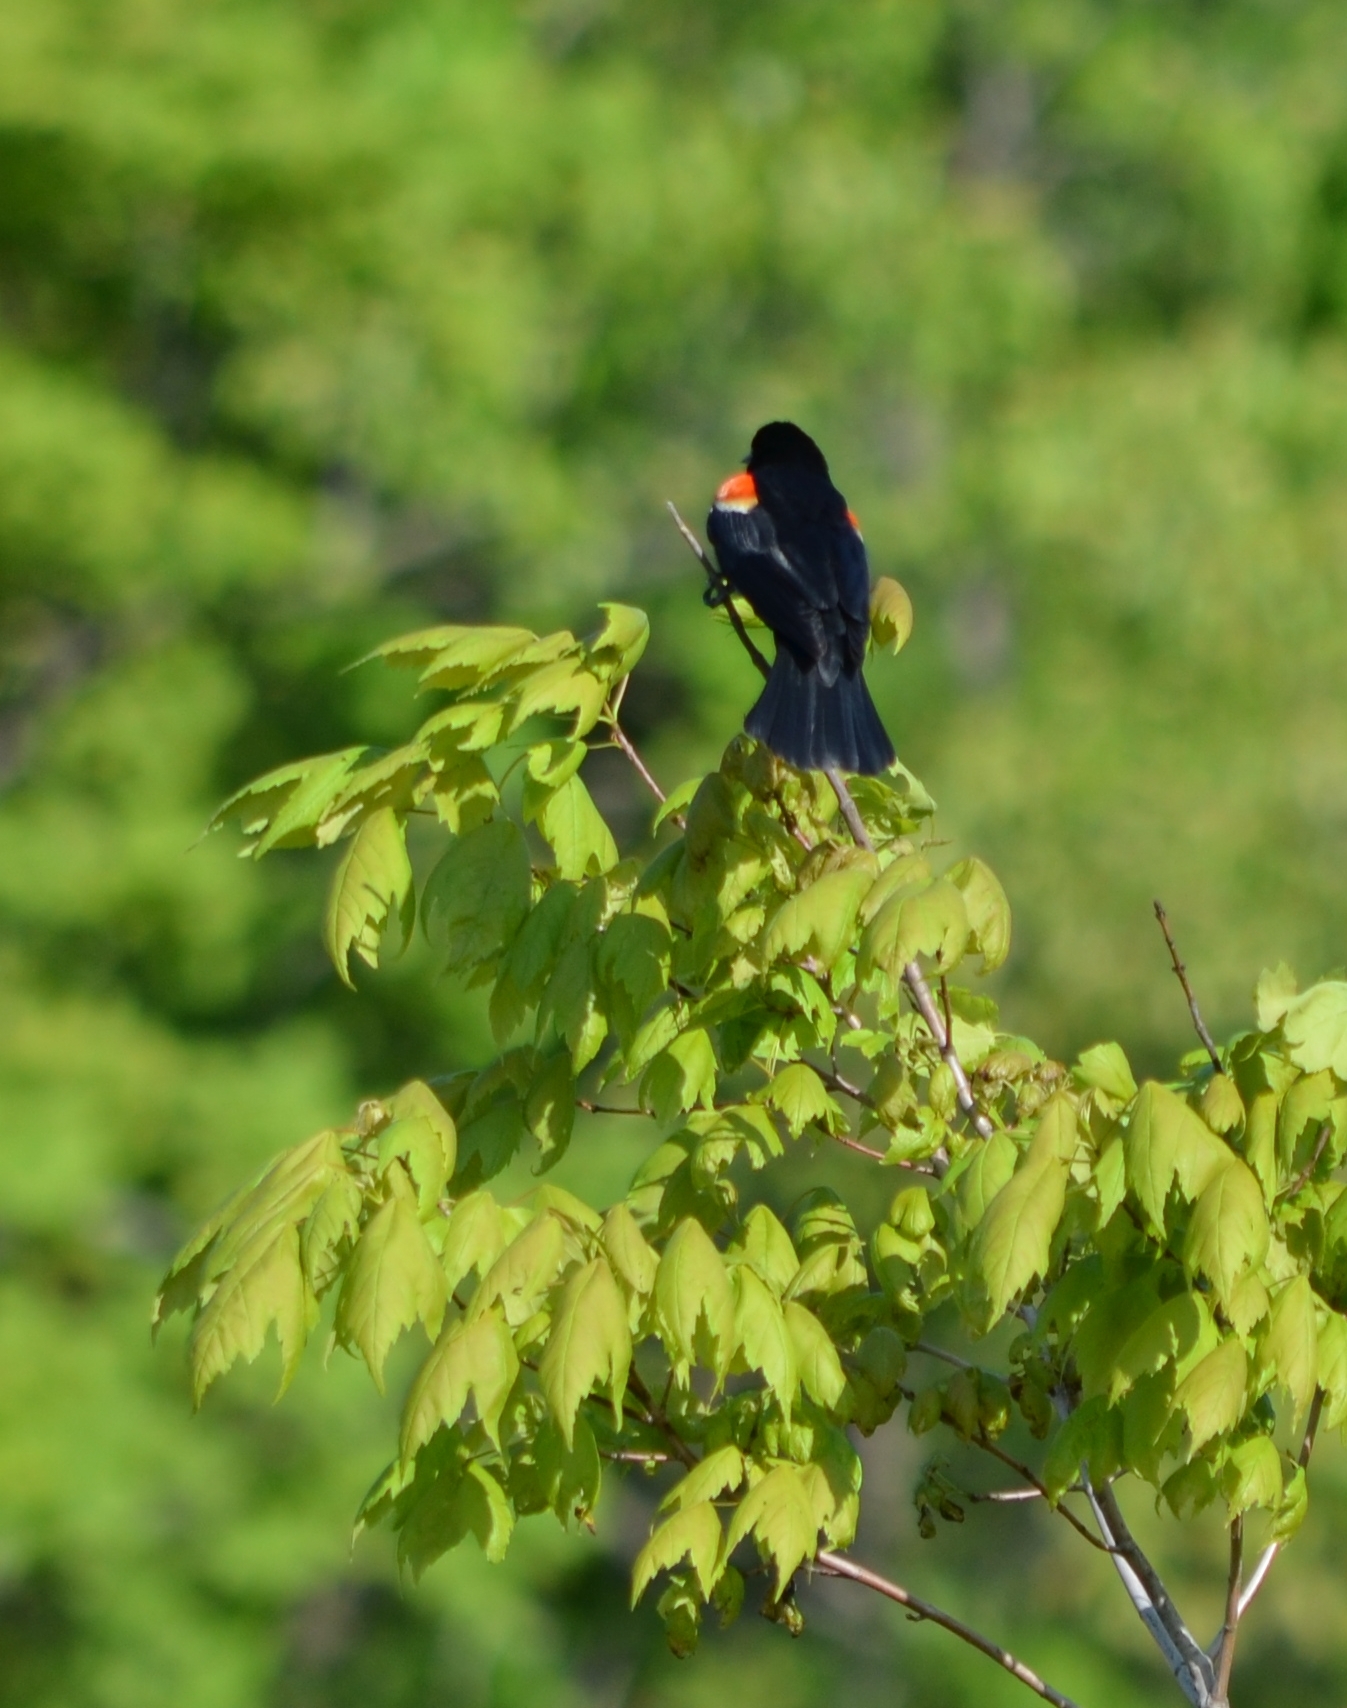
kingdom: Animalia
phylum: Chordata
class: Aves
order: Passeriformes
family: Icteridae
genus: Agelaius
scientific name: Agelaius phoeniceus
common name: Red-winged blackbird
